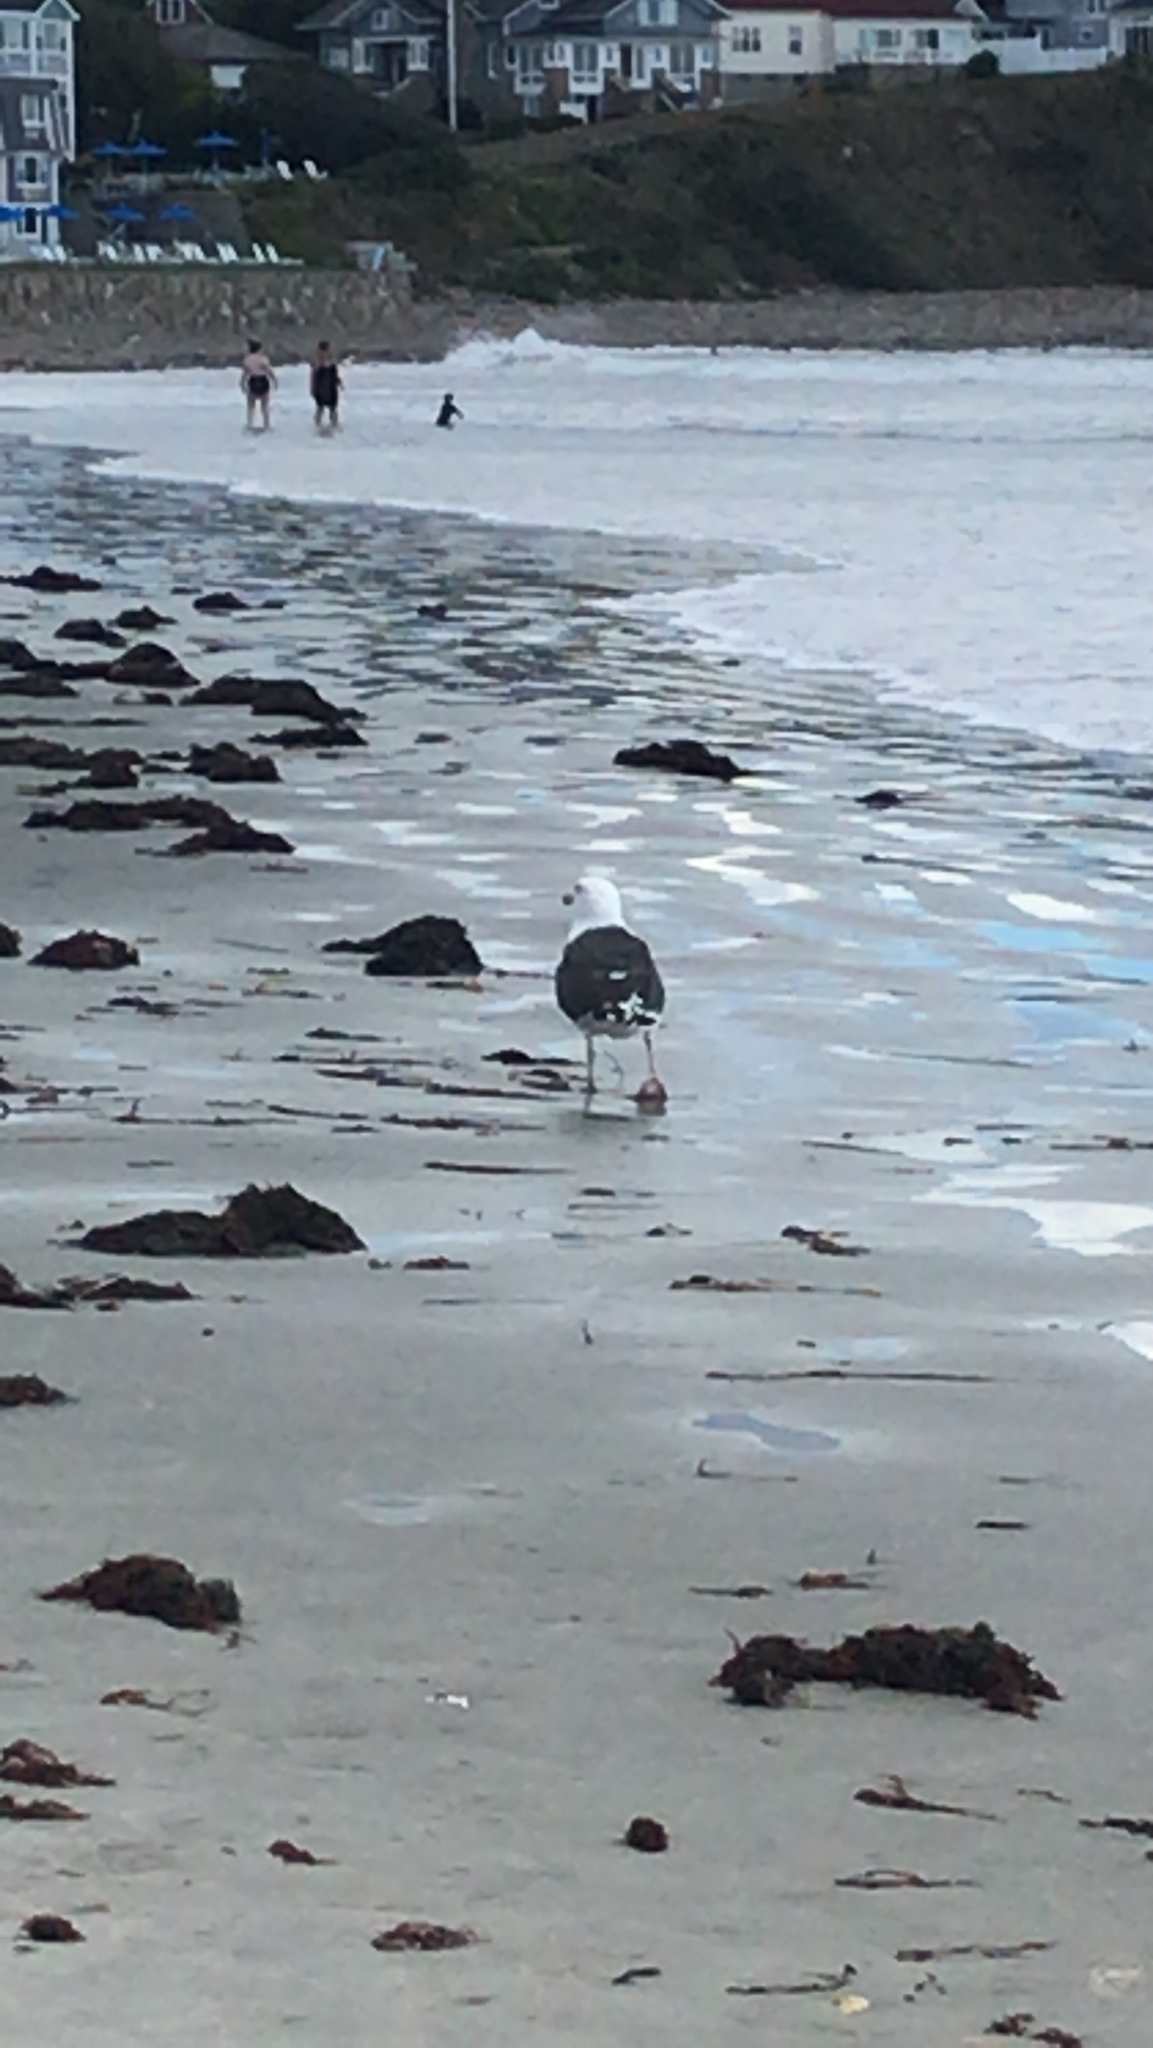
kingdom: Animalia
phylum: Chordata
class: Aves
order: Charadriiformes
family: Laridae
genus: Larus
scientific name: Larus marinus
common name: Great black-backed gull
